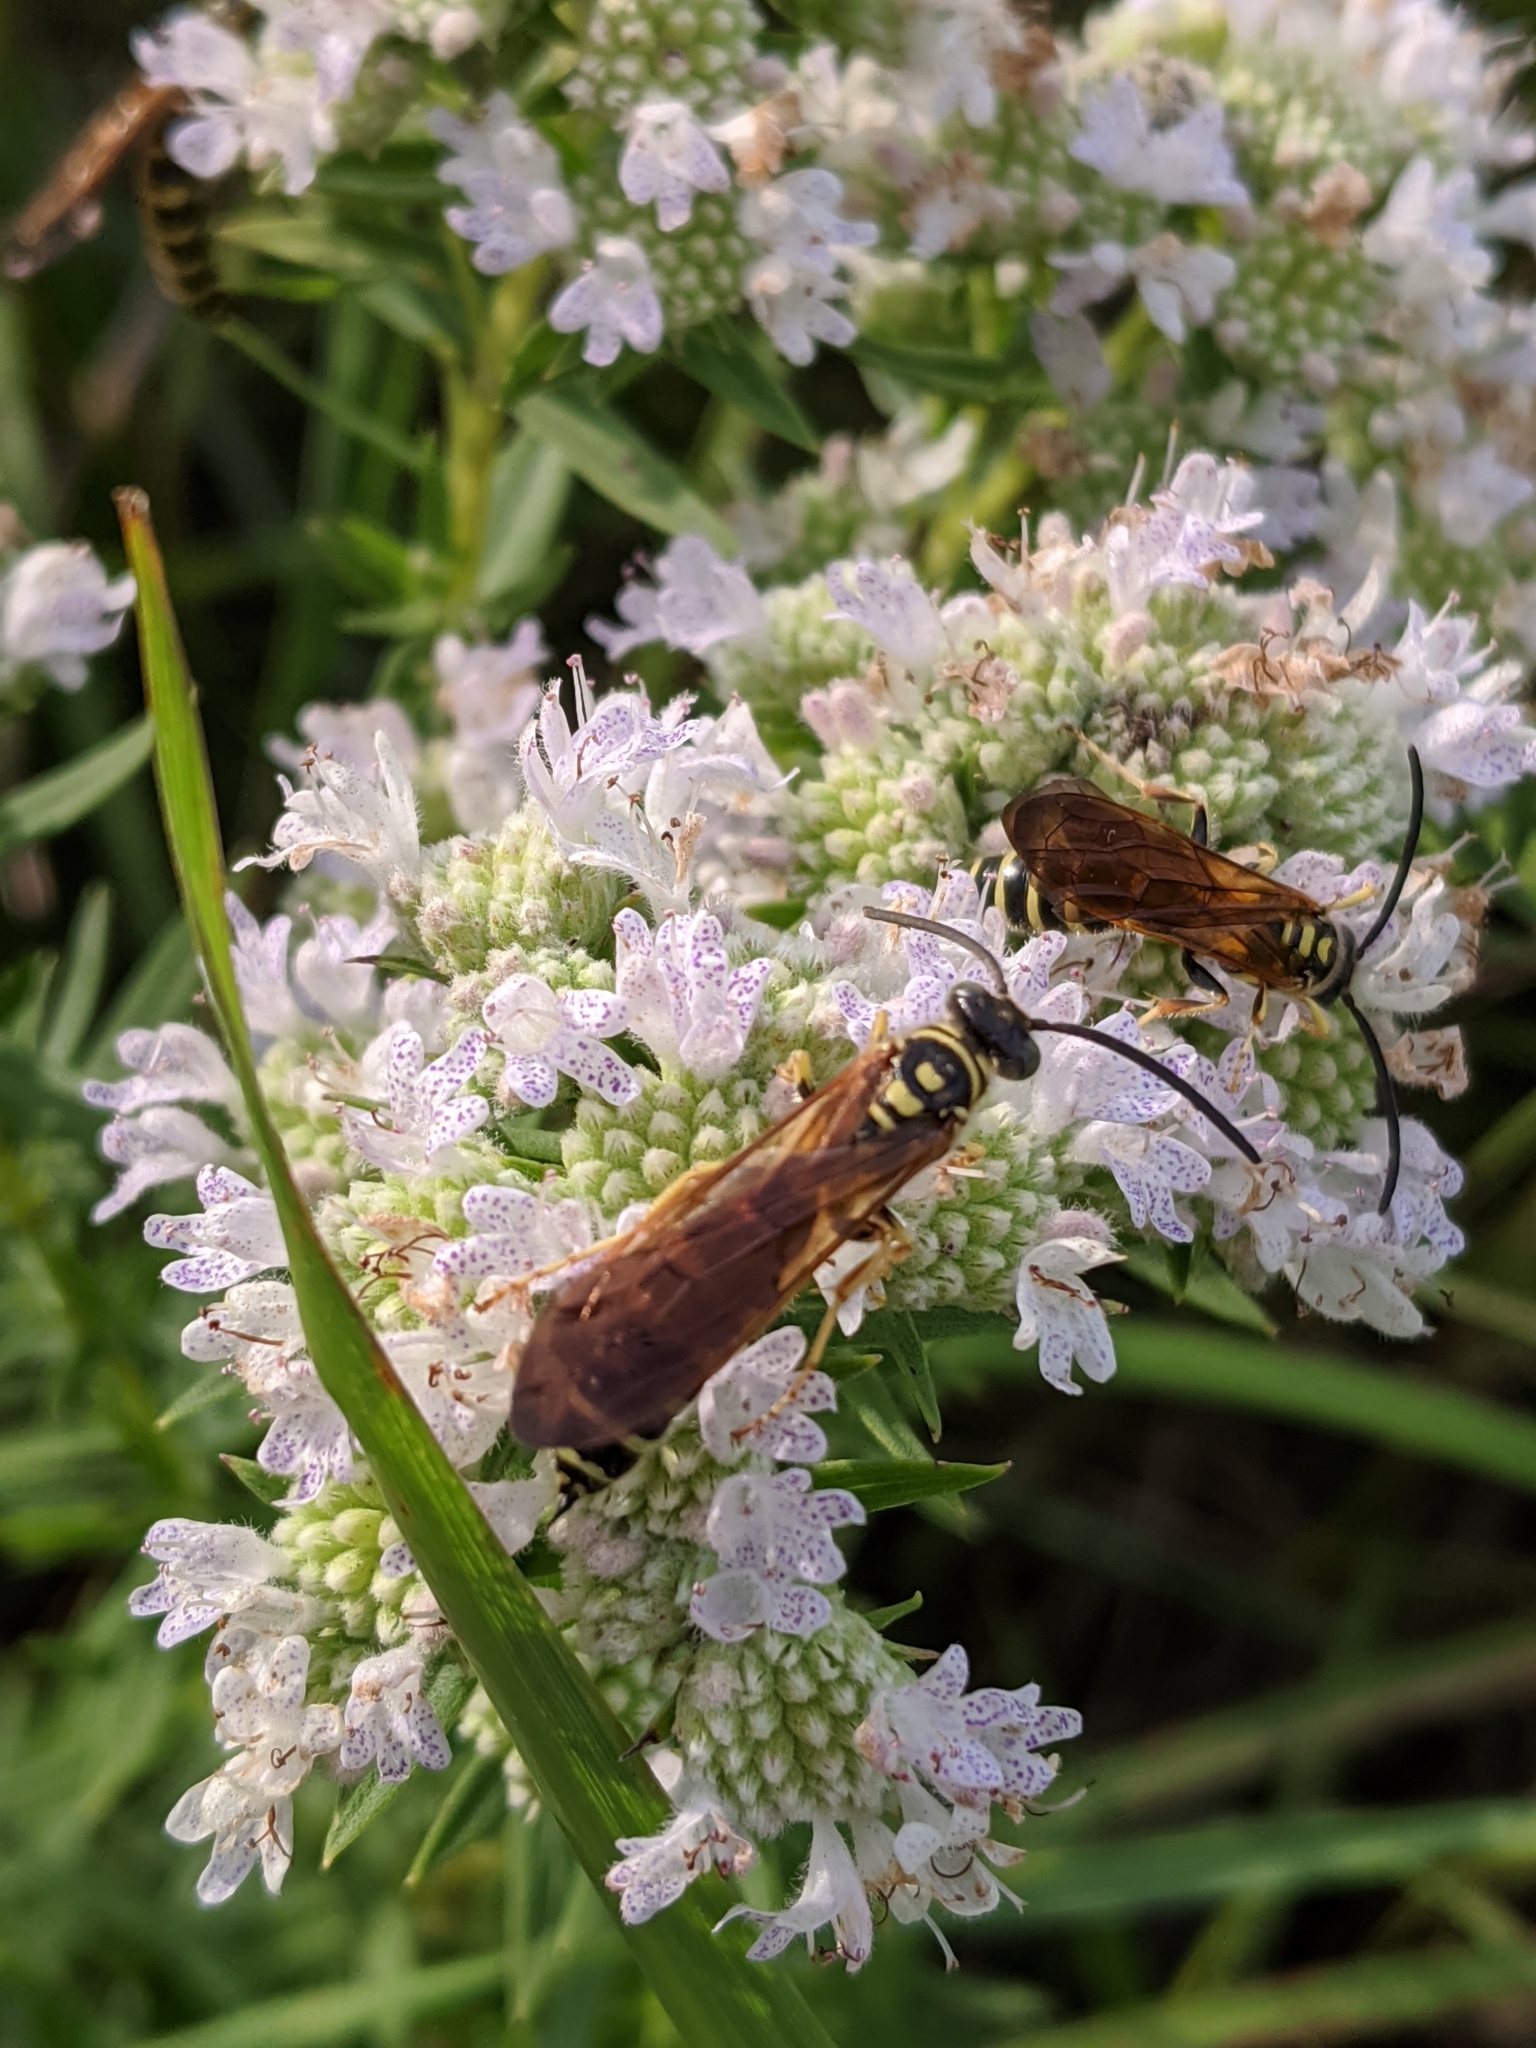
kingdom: Animalia
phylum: Arthropoda
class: Insecta
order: Hymenoptera
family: Tiphiidae
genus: Myzinum
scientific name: Myzinum quinquecinctum
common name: Five-banded thynnid wasp
